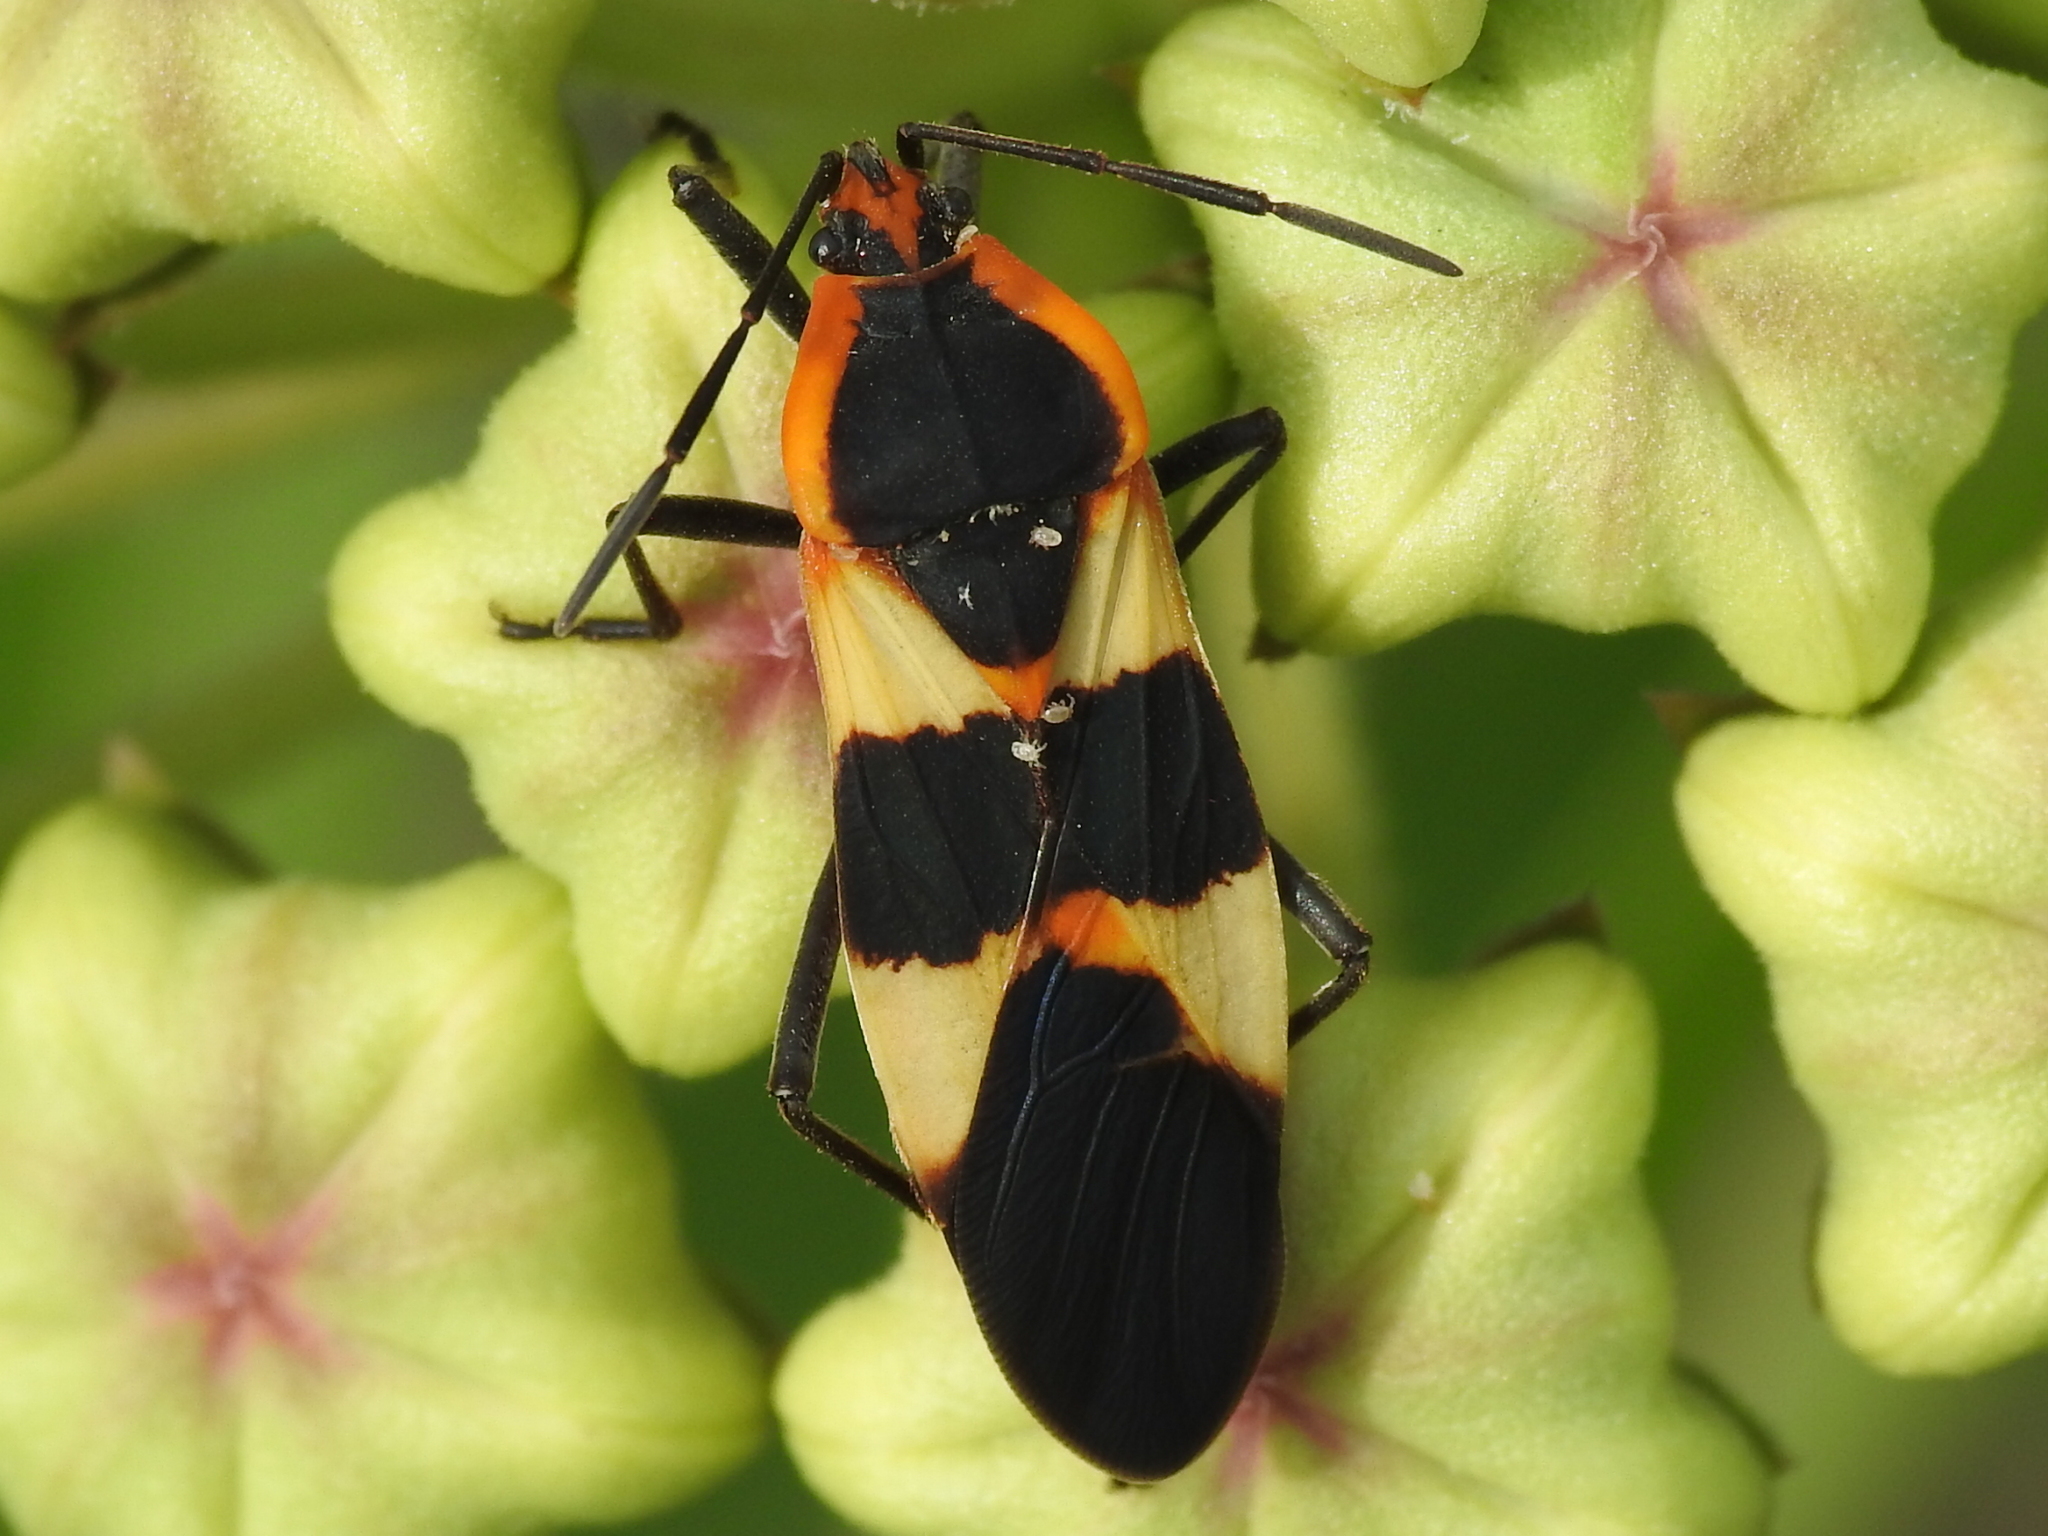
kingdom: Animalia
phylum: Arthropoda
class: Insecta
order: Hemiptera
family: Lygaeidae
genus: Oncopeltus
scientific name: Oncopeltus fasciatus
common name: Large milkweed bug
